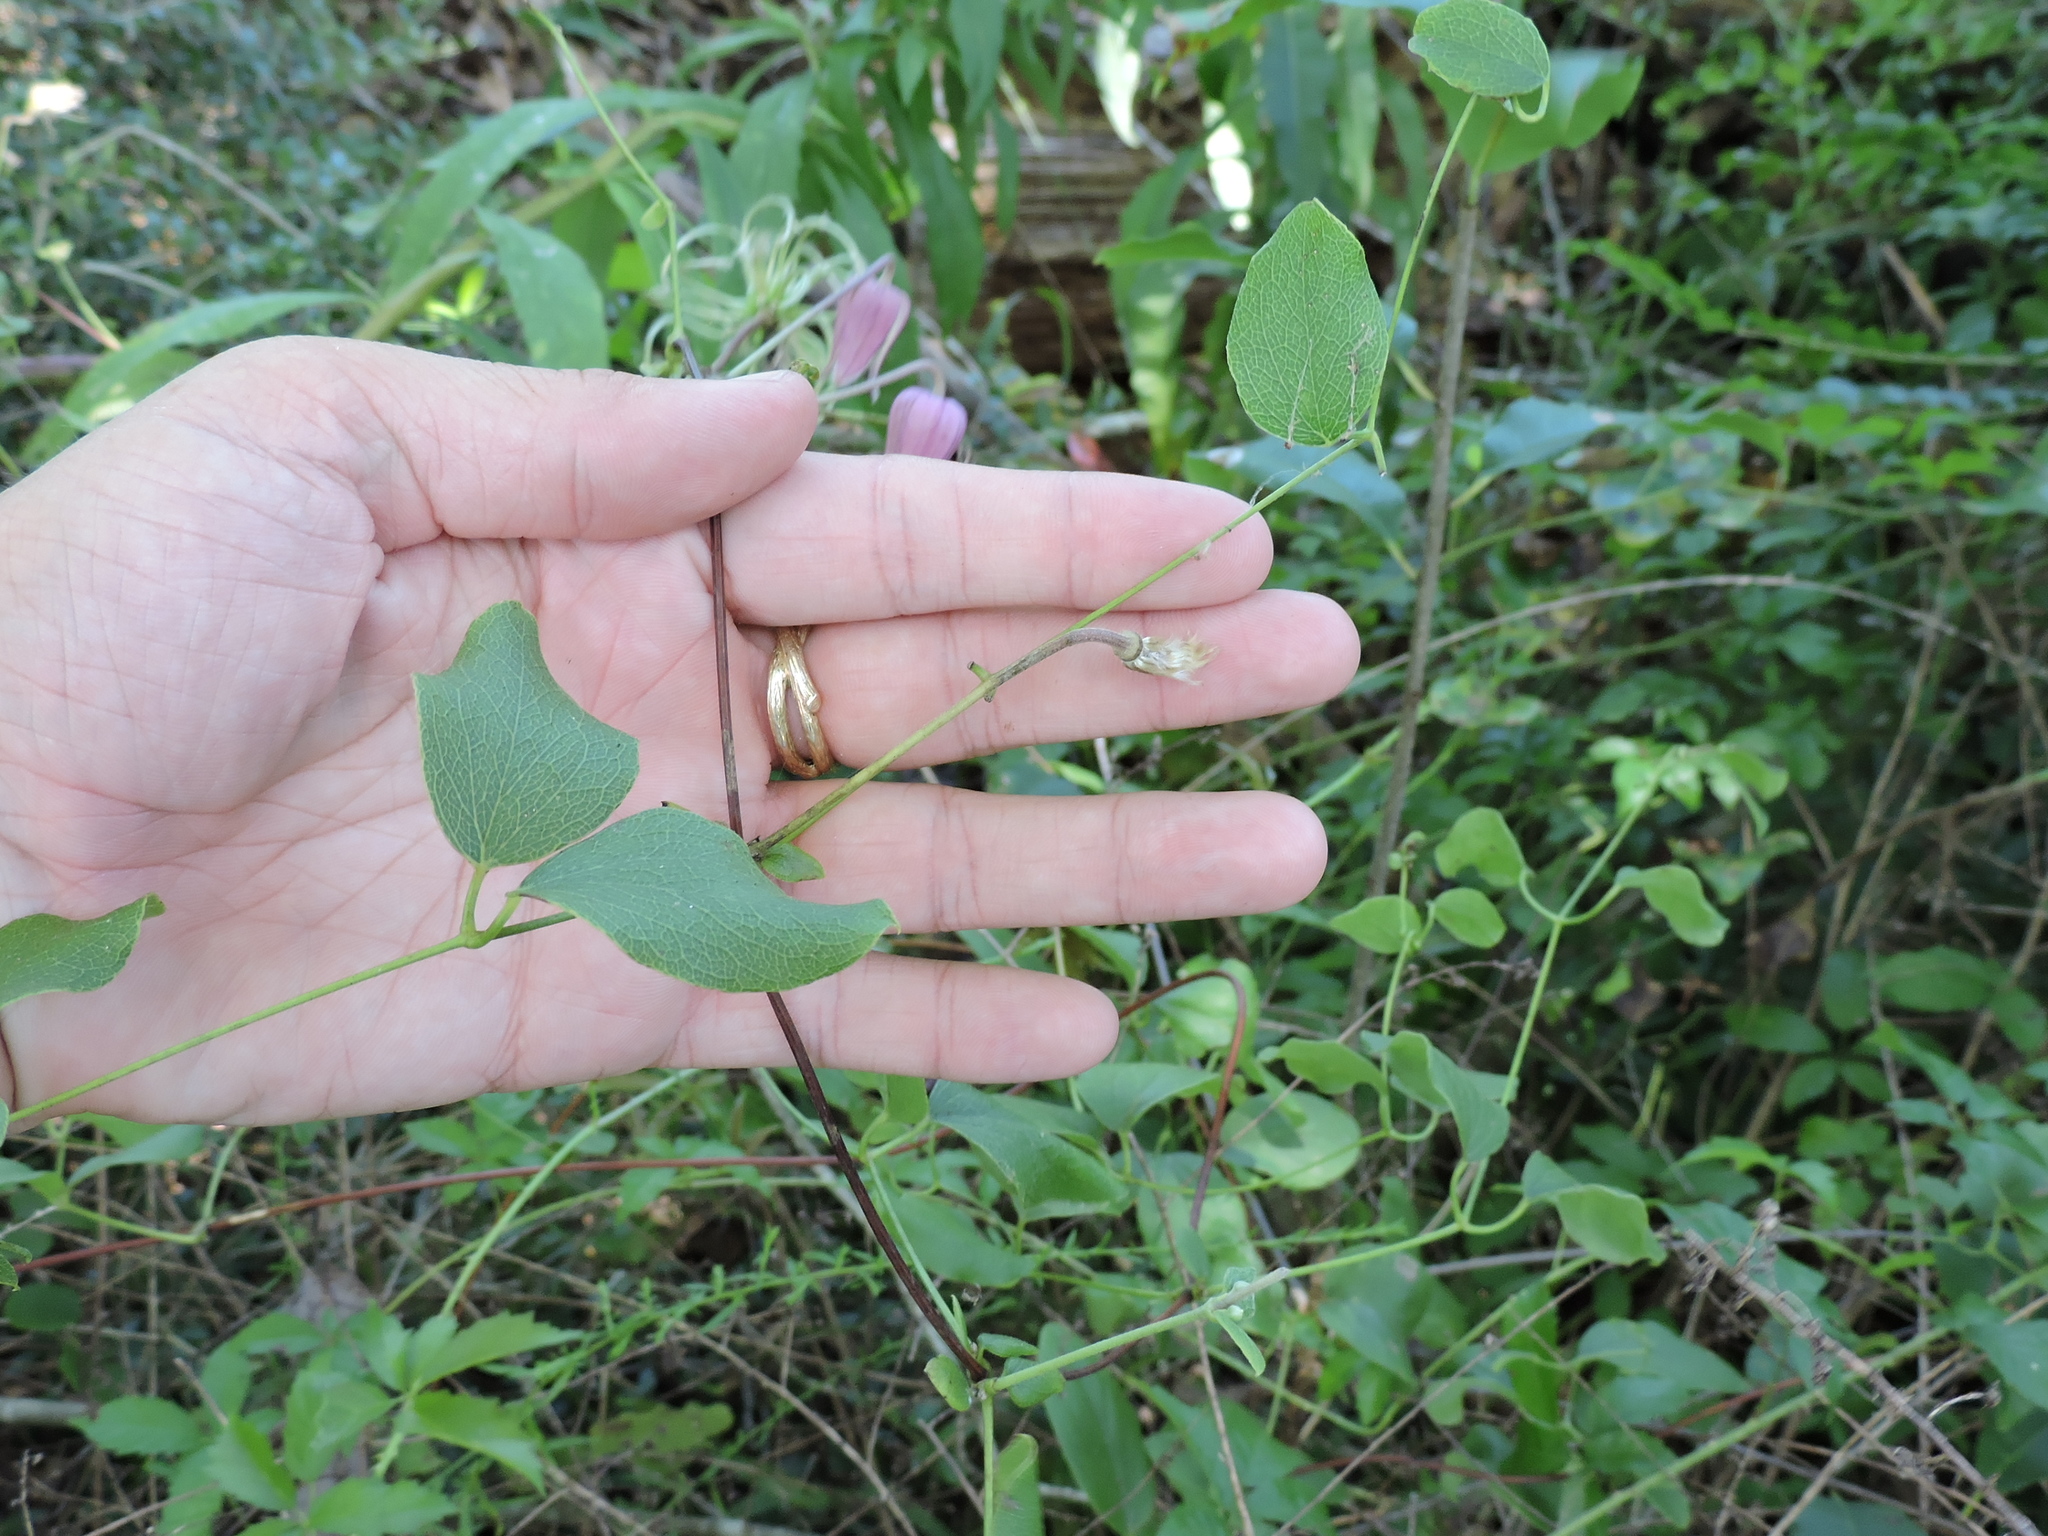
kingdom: Plantae
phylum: Tracheophyta
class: Magnoliopsida
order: Ranunculales
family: Ranunculaceae
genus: Clematis
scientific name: Clematis reticulata
